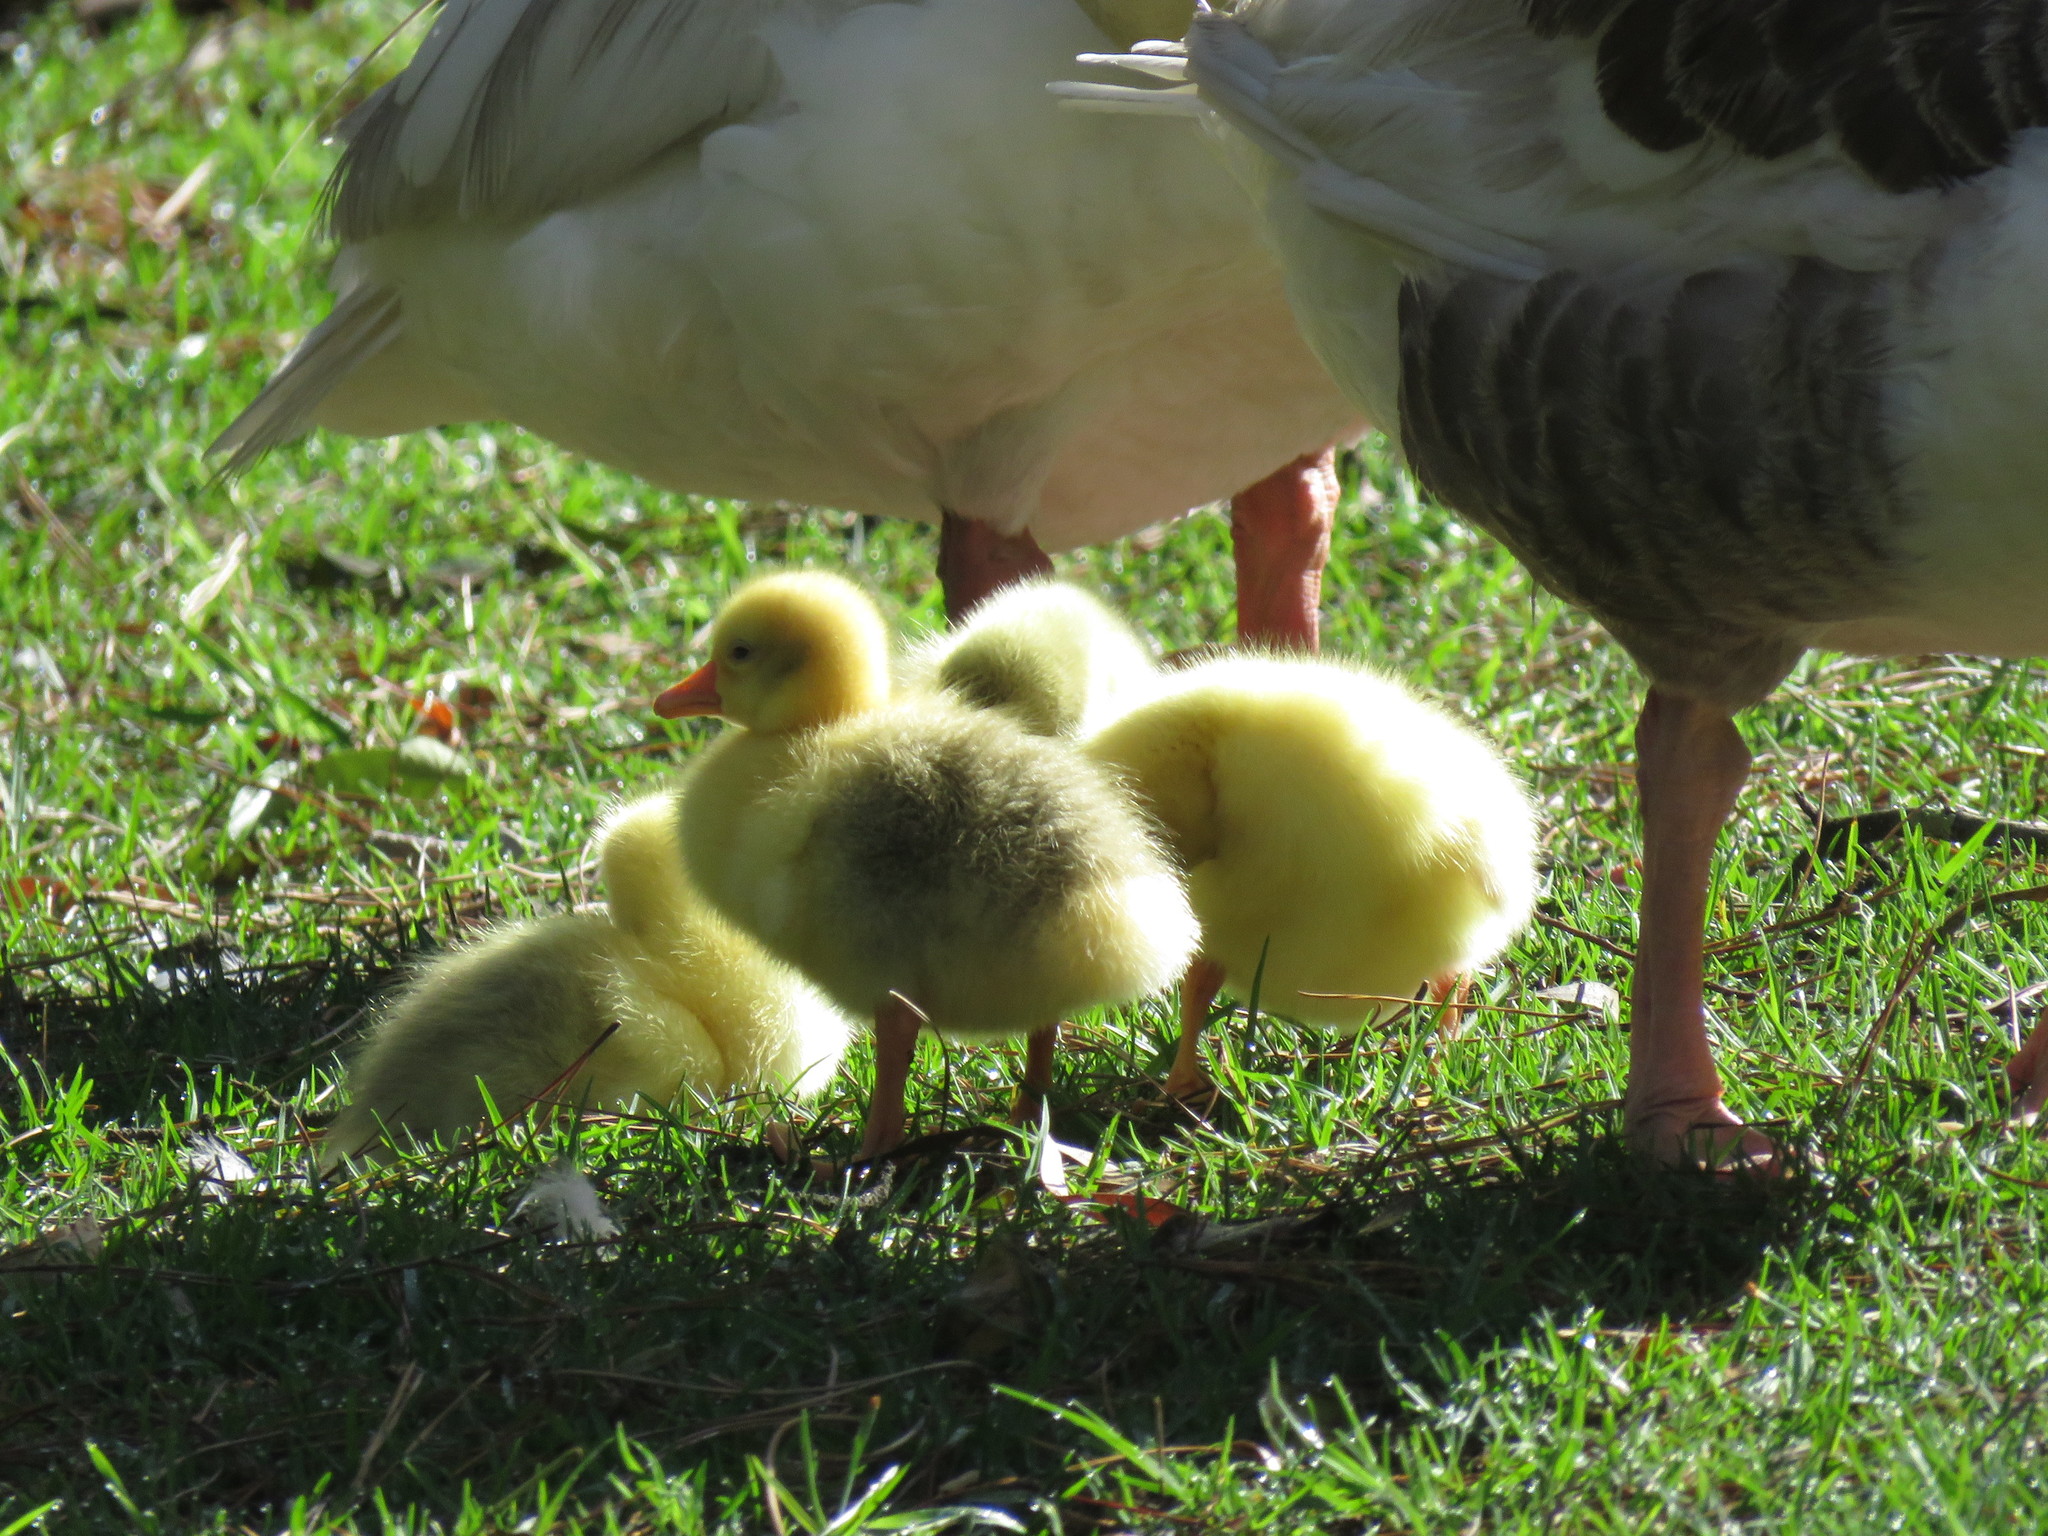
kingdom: Animalia
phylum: Chordata
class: Aves
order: Anseriformes
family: Anatidae
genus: Anser
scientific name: Anser anser
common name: Greylag goose
